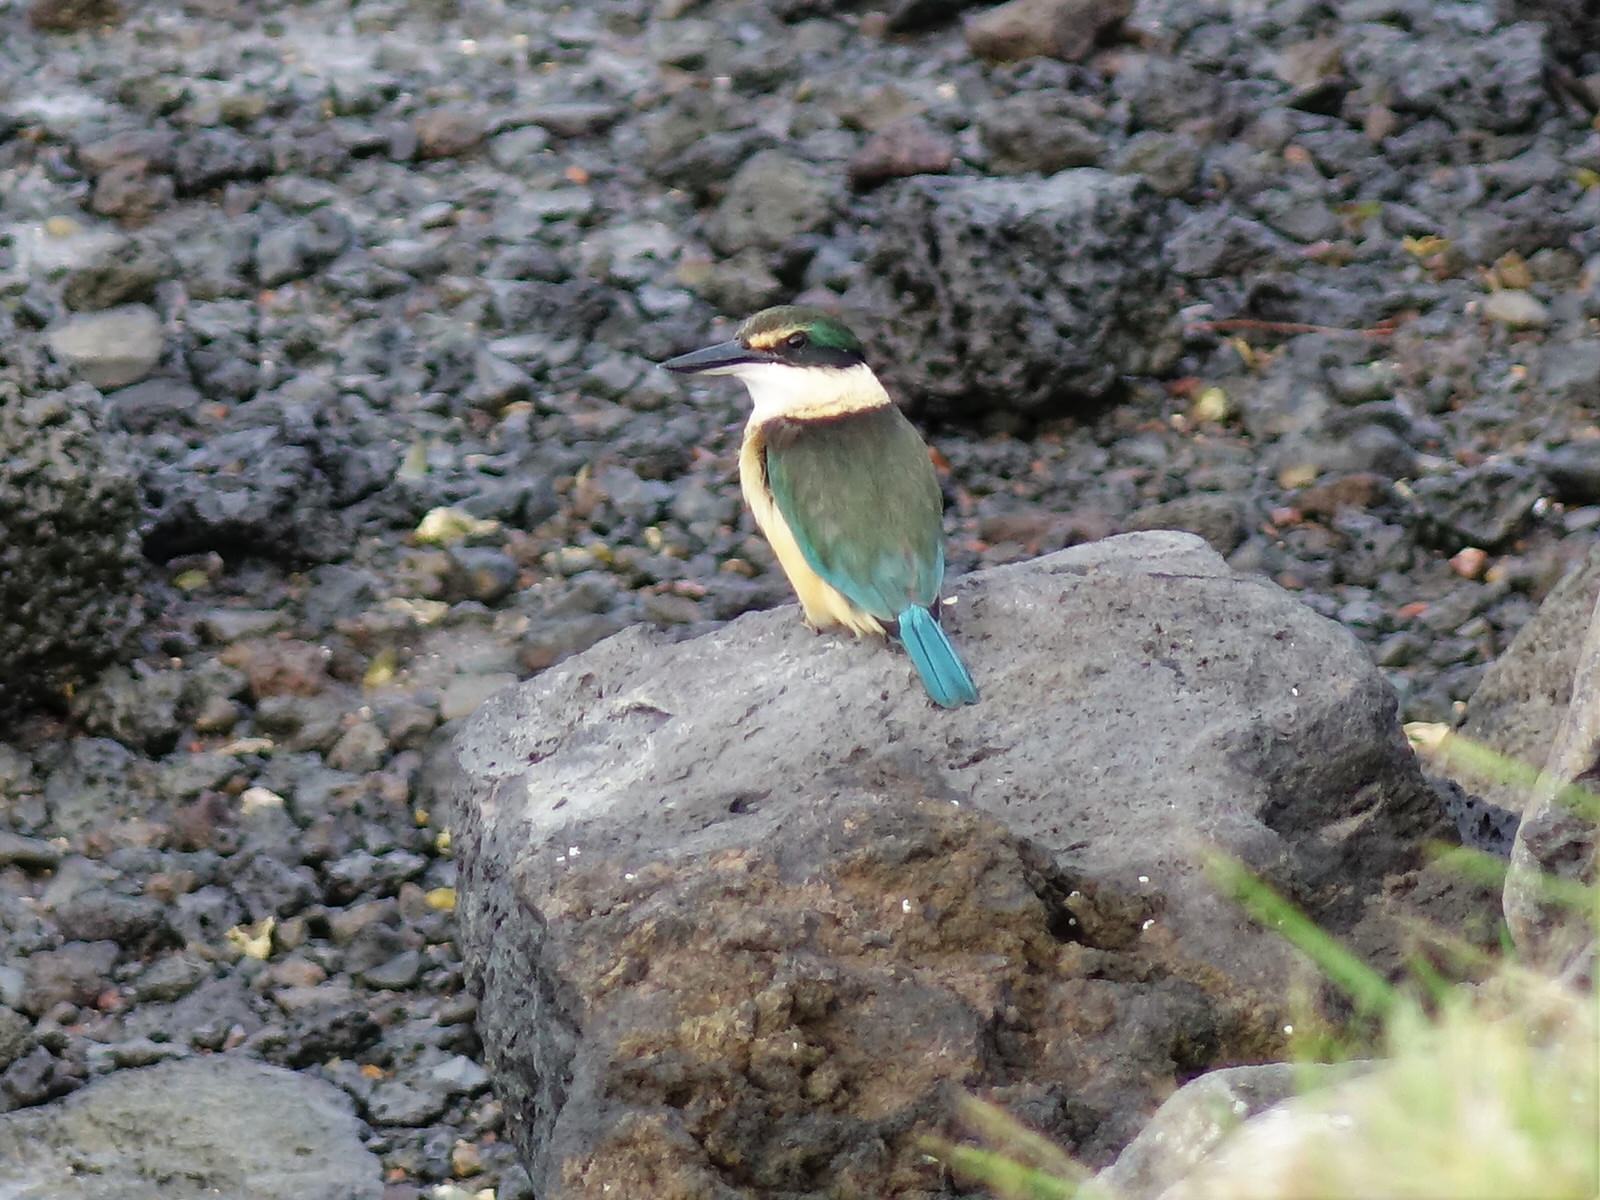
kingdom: Animalia
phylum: Chordata
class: Aves
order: Coraciiformes
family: Alcedinidae
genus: Todiramphus
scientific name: Todiramphus sanctus
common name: Sacred kingfisher
